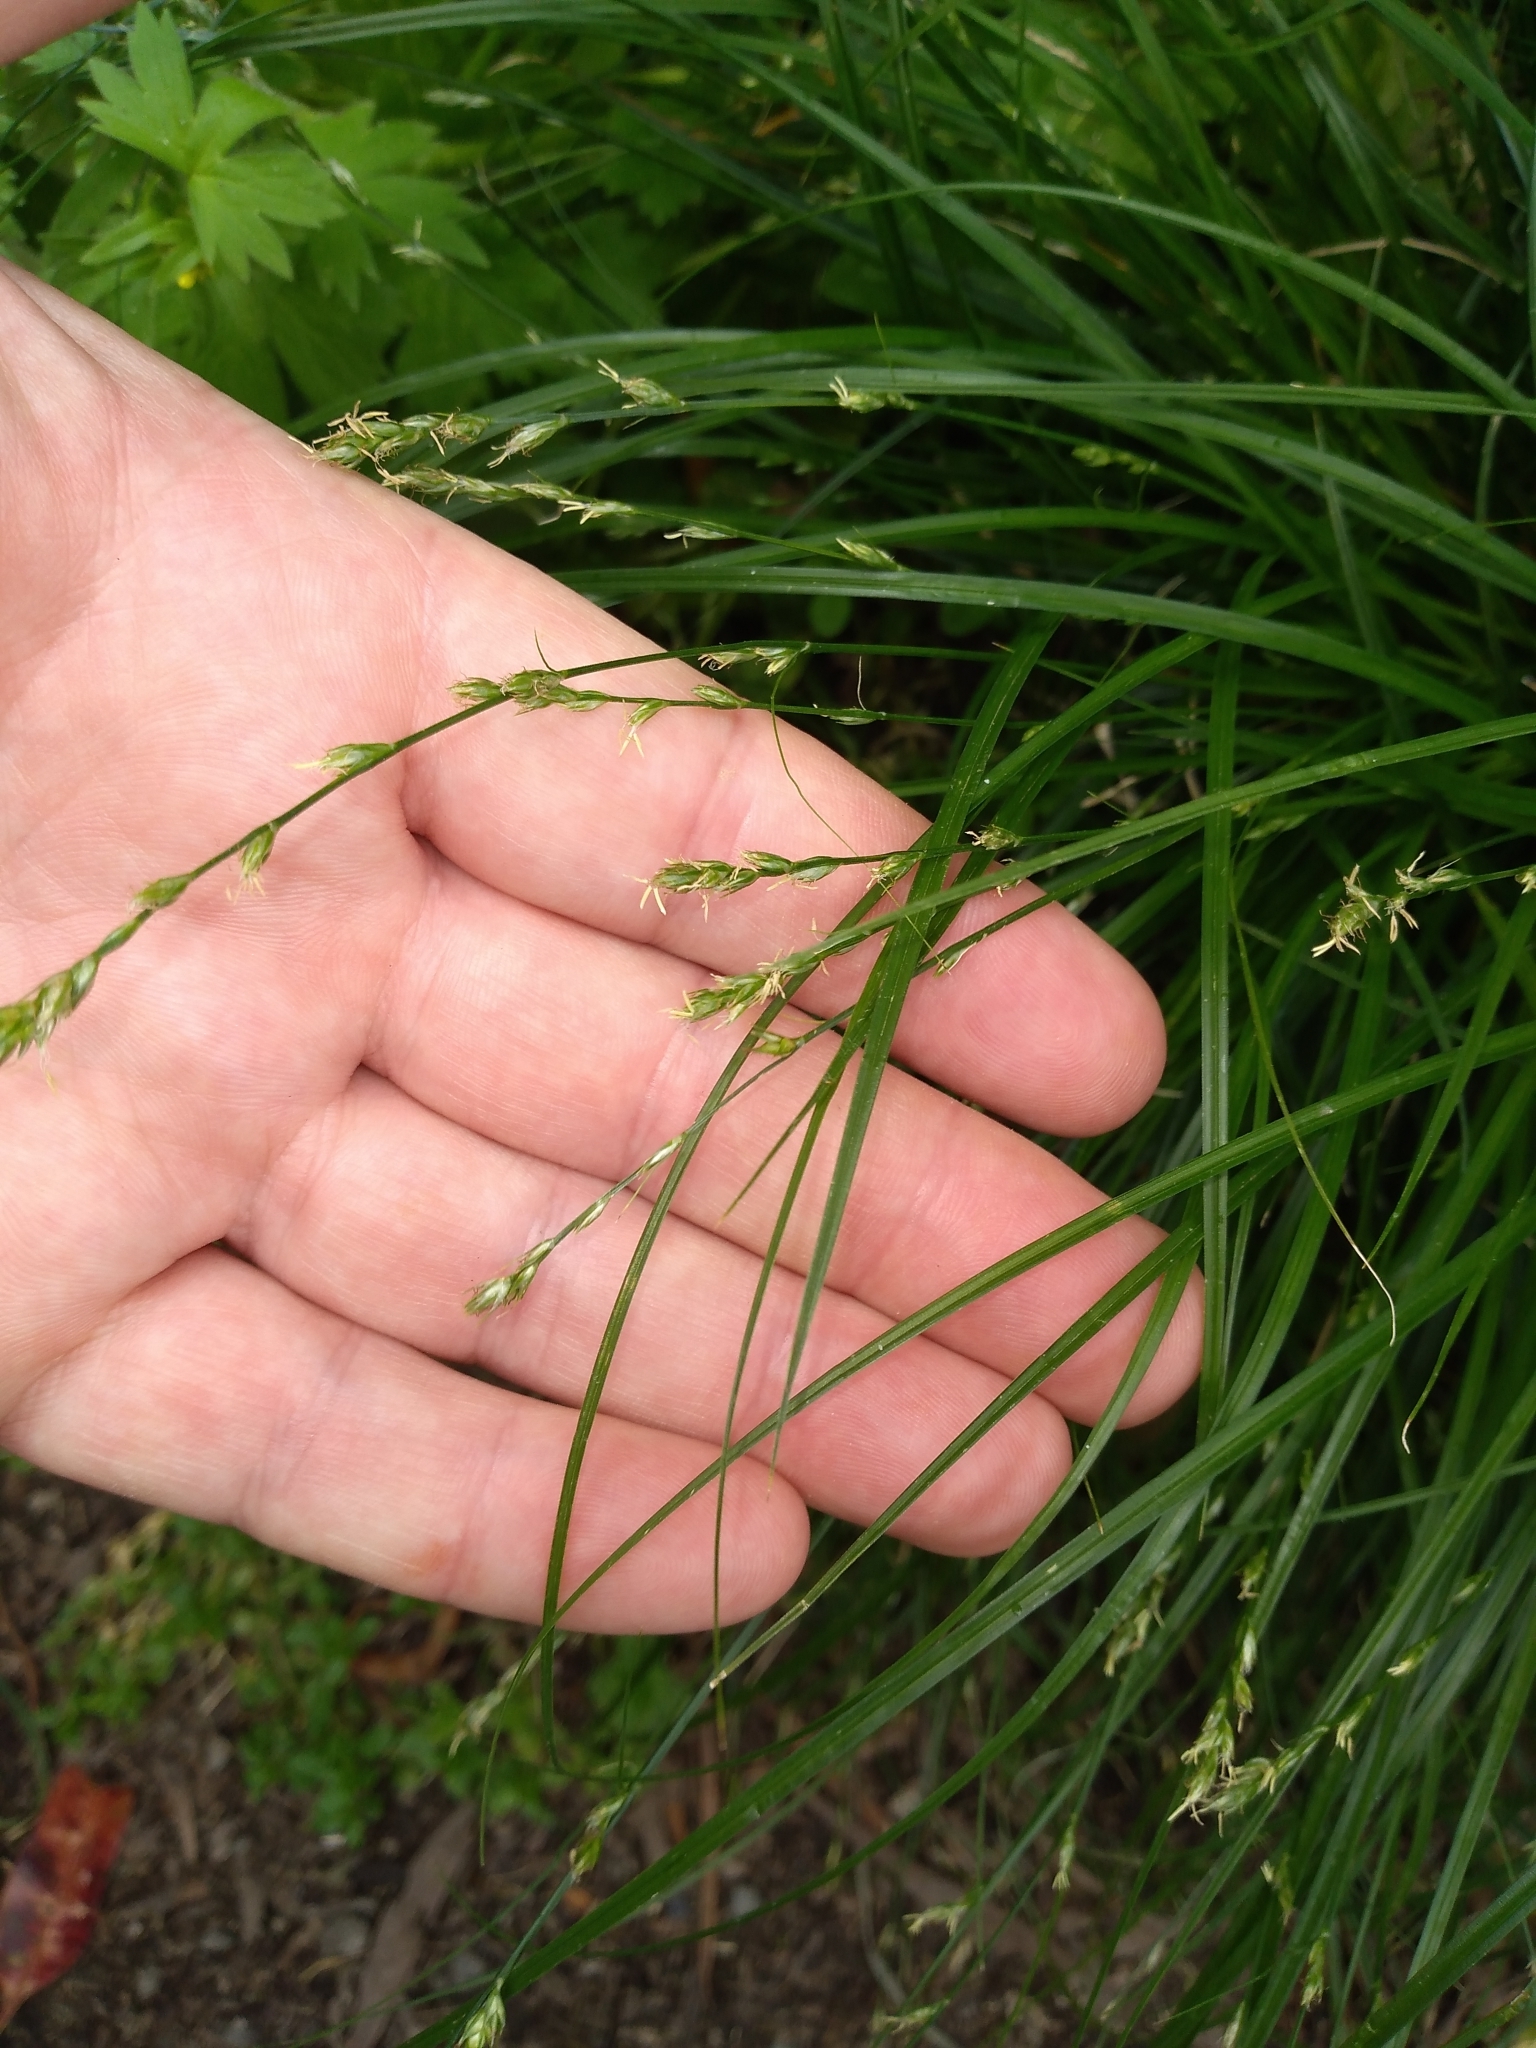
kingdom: Plantae
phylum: Tracheophyta
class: Liliopsida
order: Poales
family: Cyperaceae
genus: Carex
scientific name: Carex divulsa
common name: Grassland sedge
